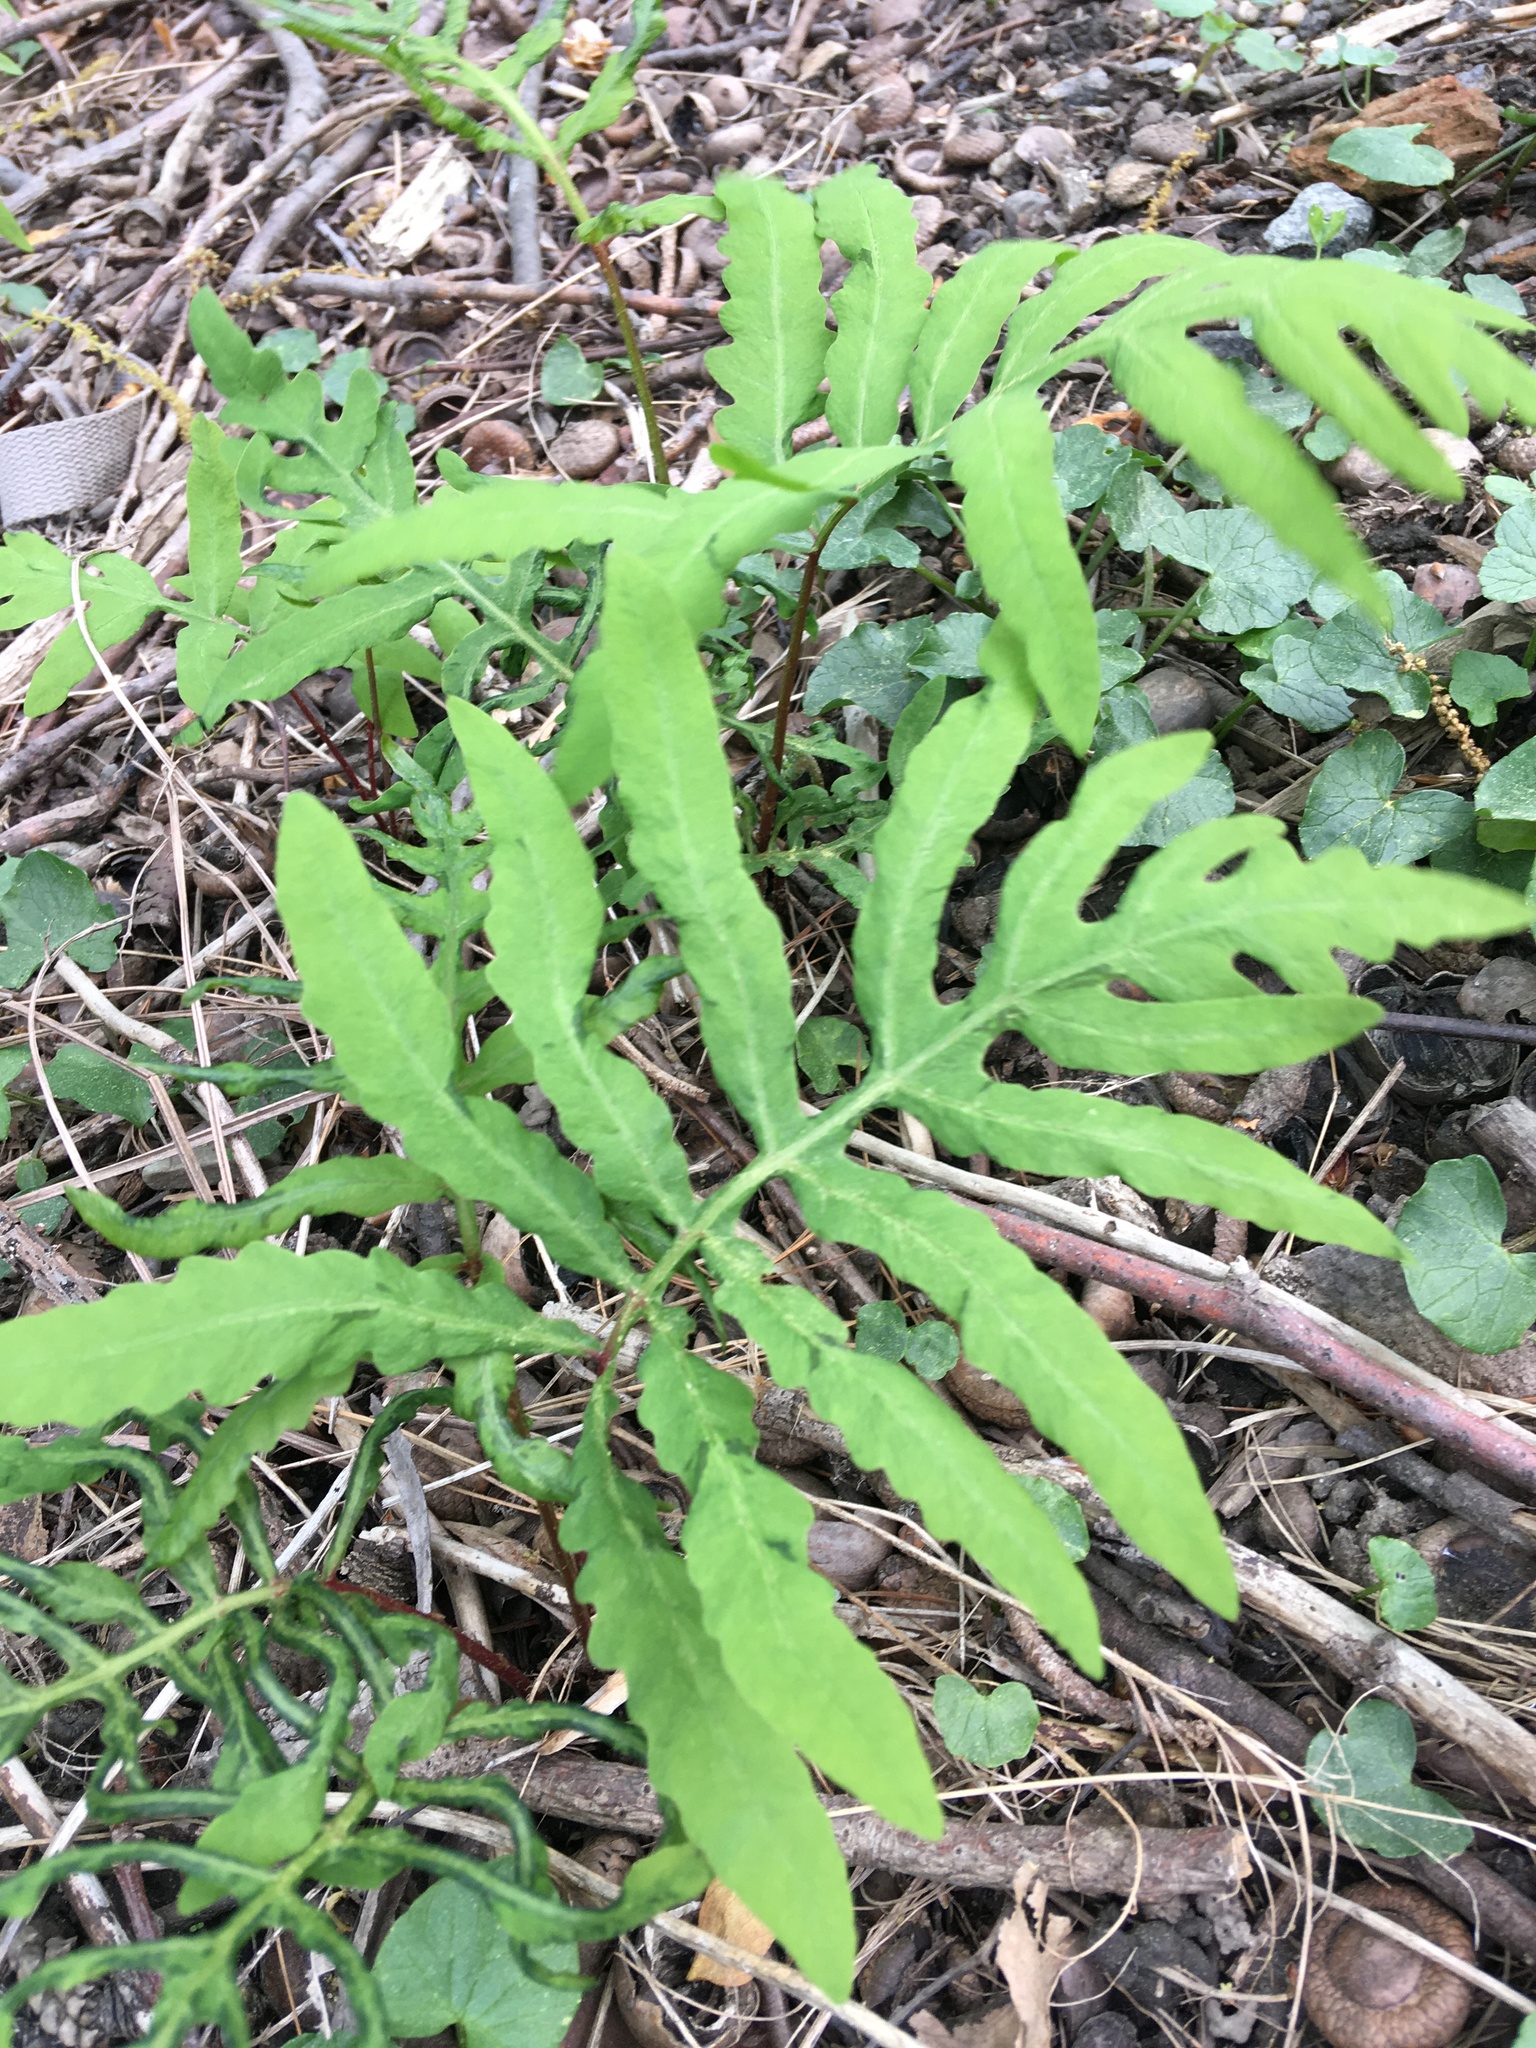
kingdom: Plantae
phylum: Tracheophyta
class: Polypodiopsida
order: Polypodiales
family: Onocleaceae
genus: Onoclea
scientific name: Onoclea sensibilis
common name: Sensitive fern
